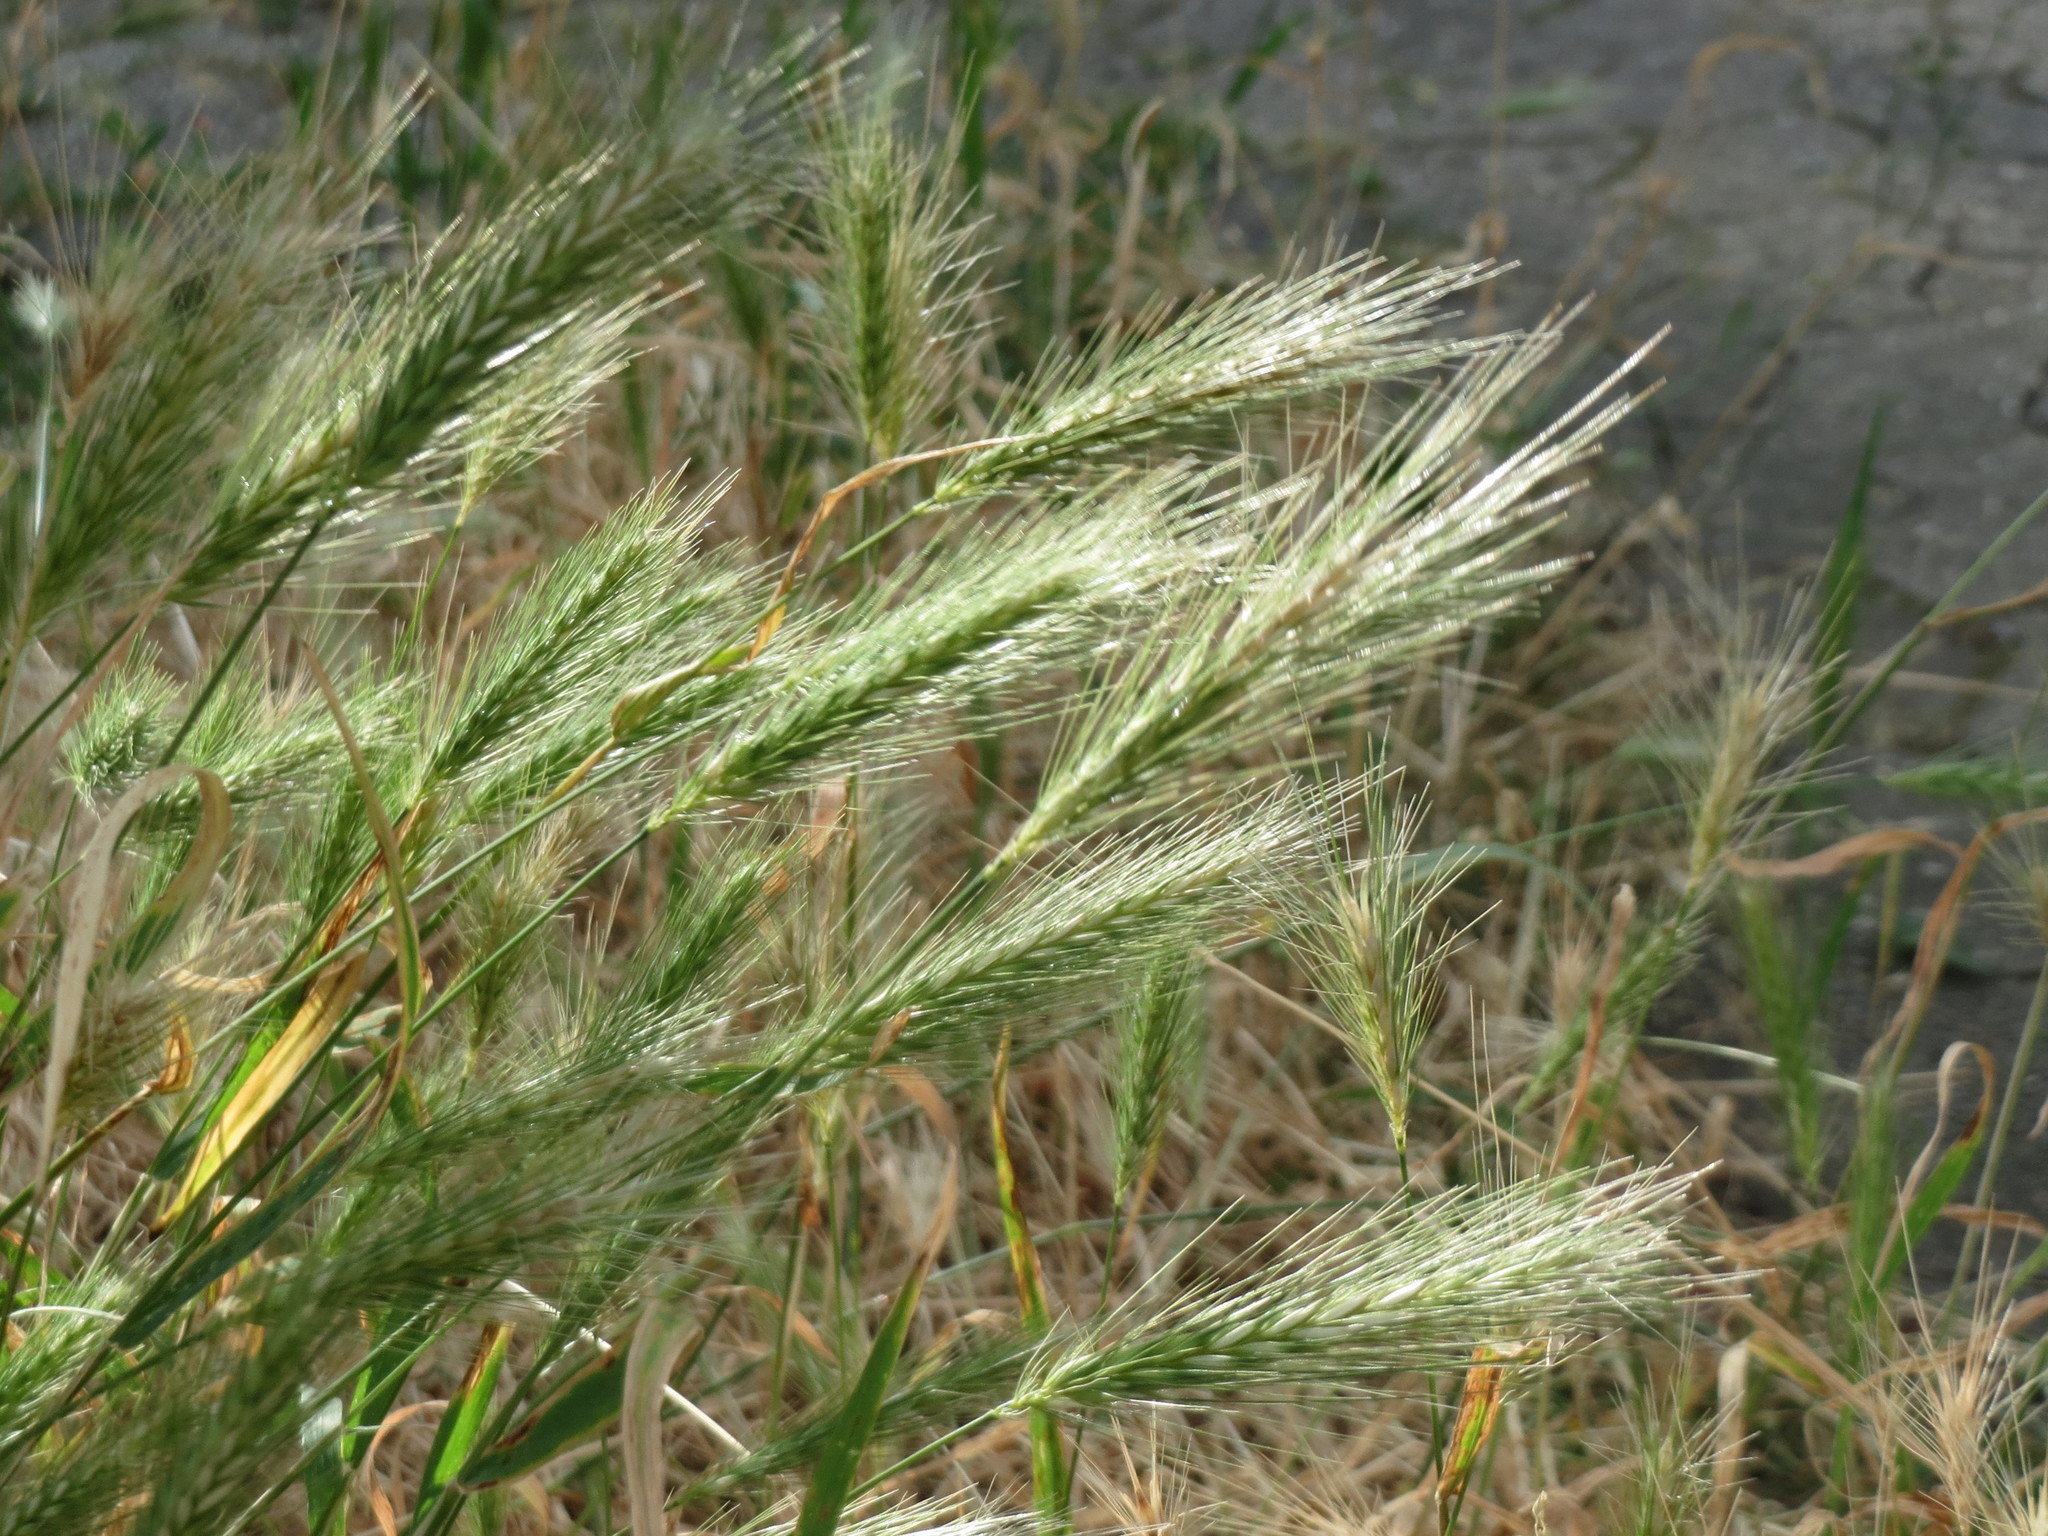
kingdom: Plantae
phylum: Tracheophyta
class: Liliopsida
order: Poales
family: Poaceae
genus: Hordeum
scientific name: Hordeum murinum
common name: Wall barley
